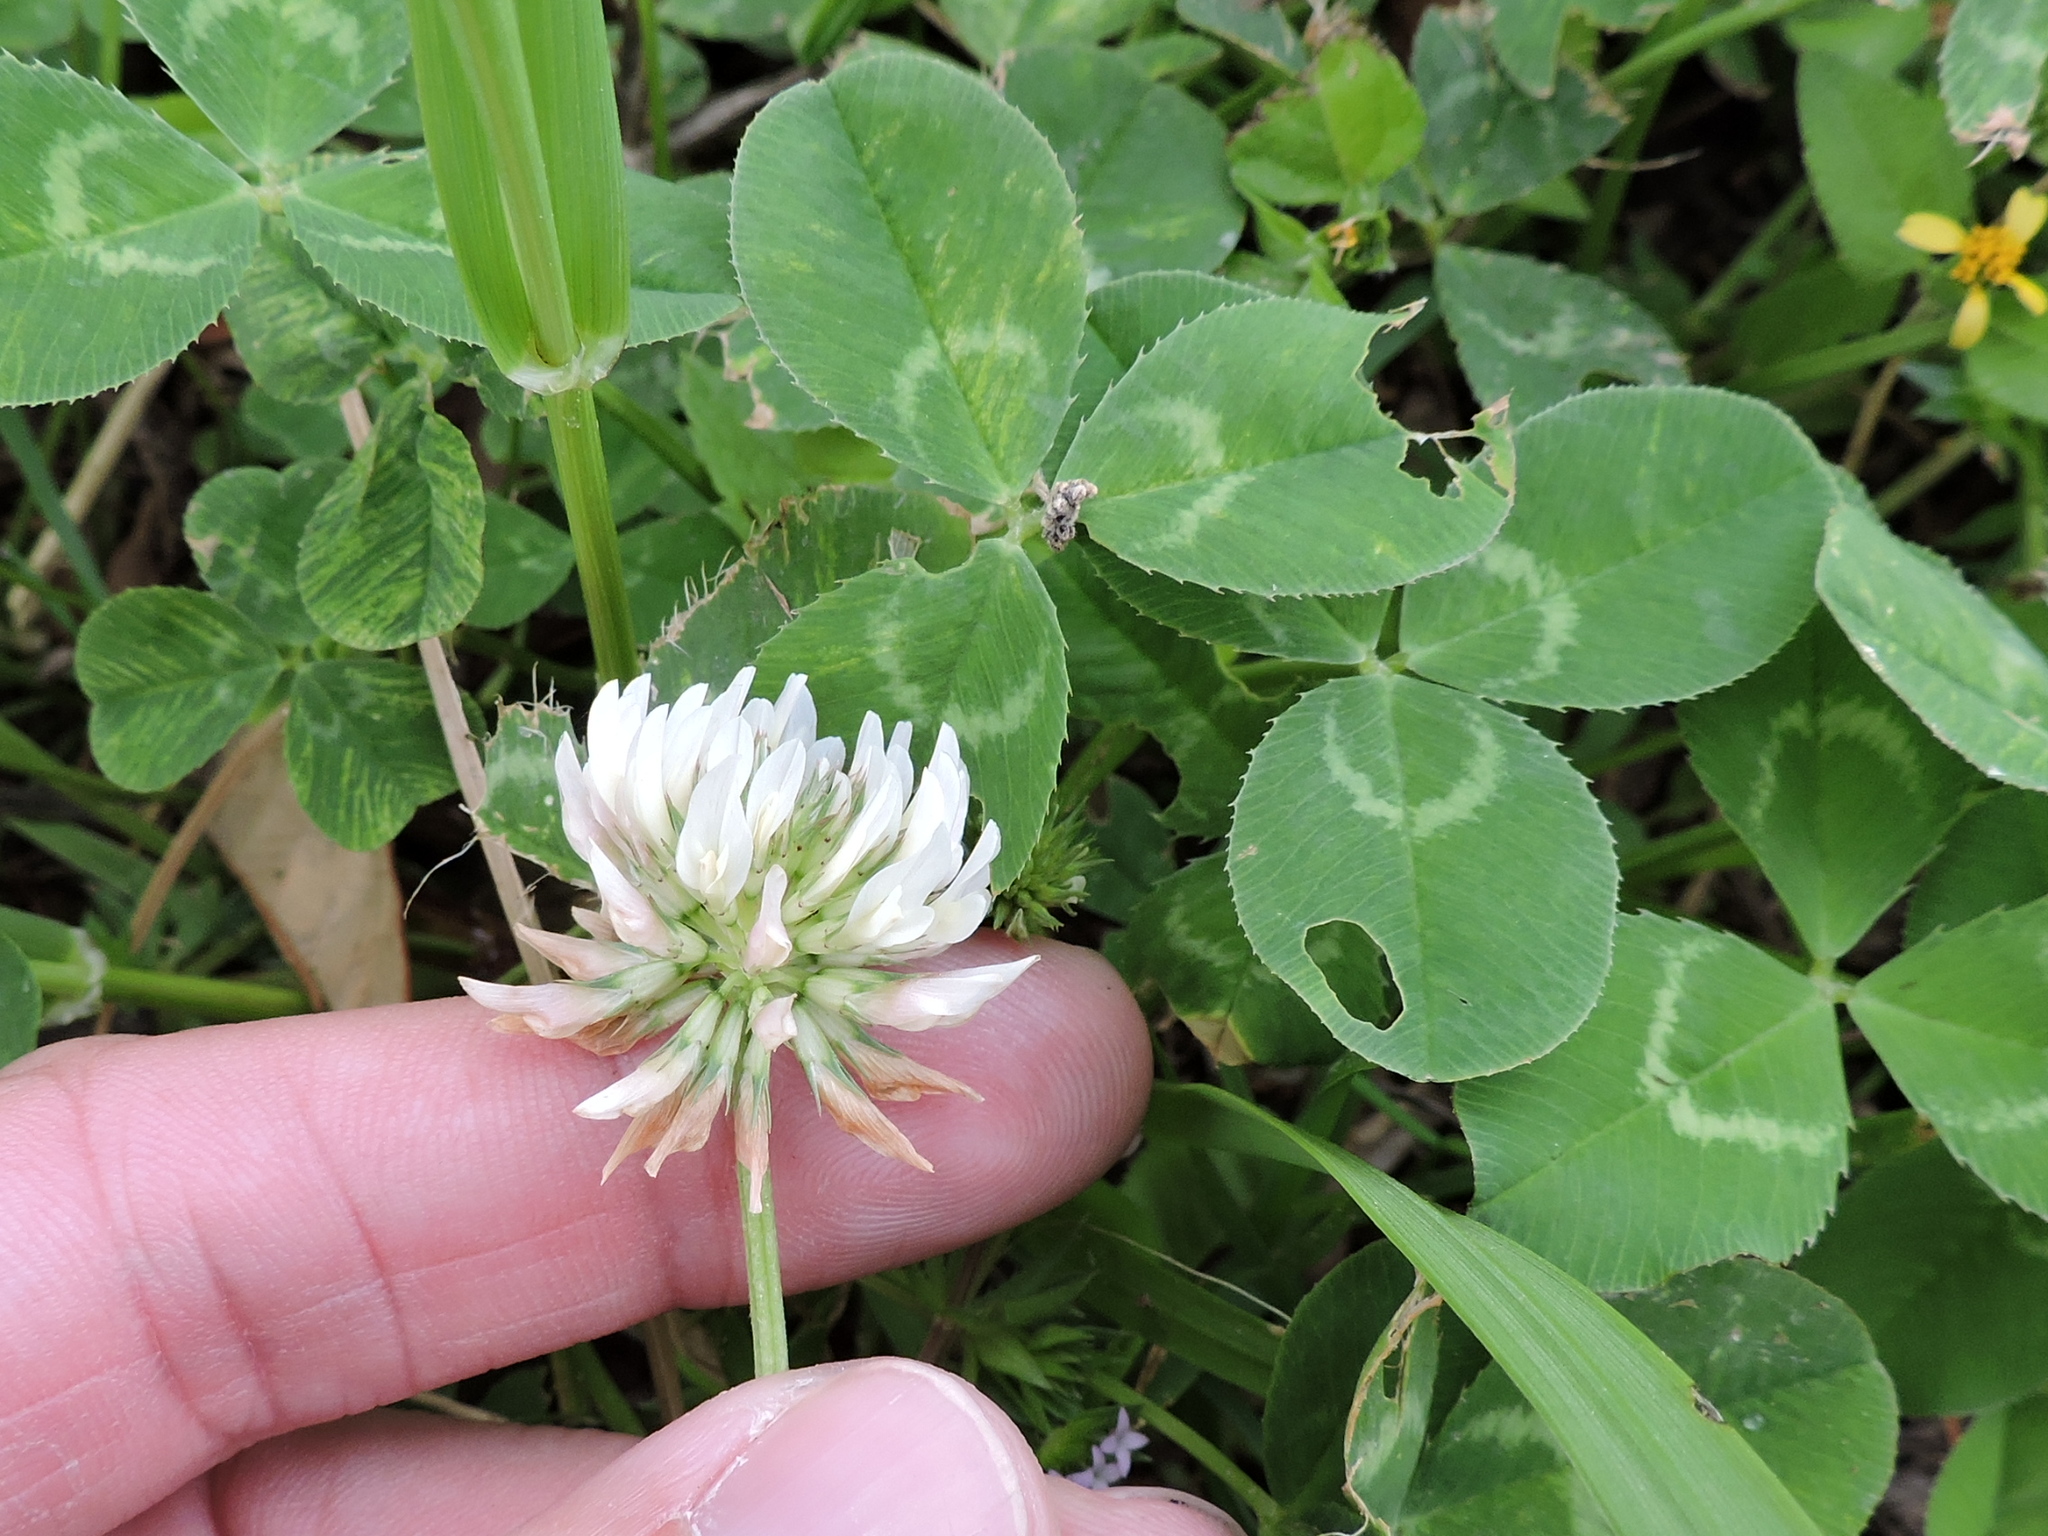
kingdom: Plantae
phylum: Tracheophyta
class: Magnoliopsida
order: Fabales
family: Fabaceae
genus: Trifolium
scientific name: Trifolium repens
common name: White clover
